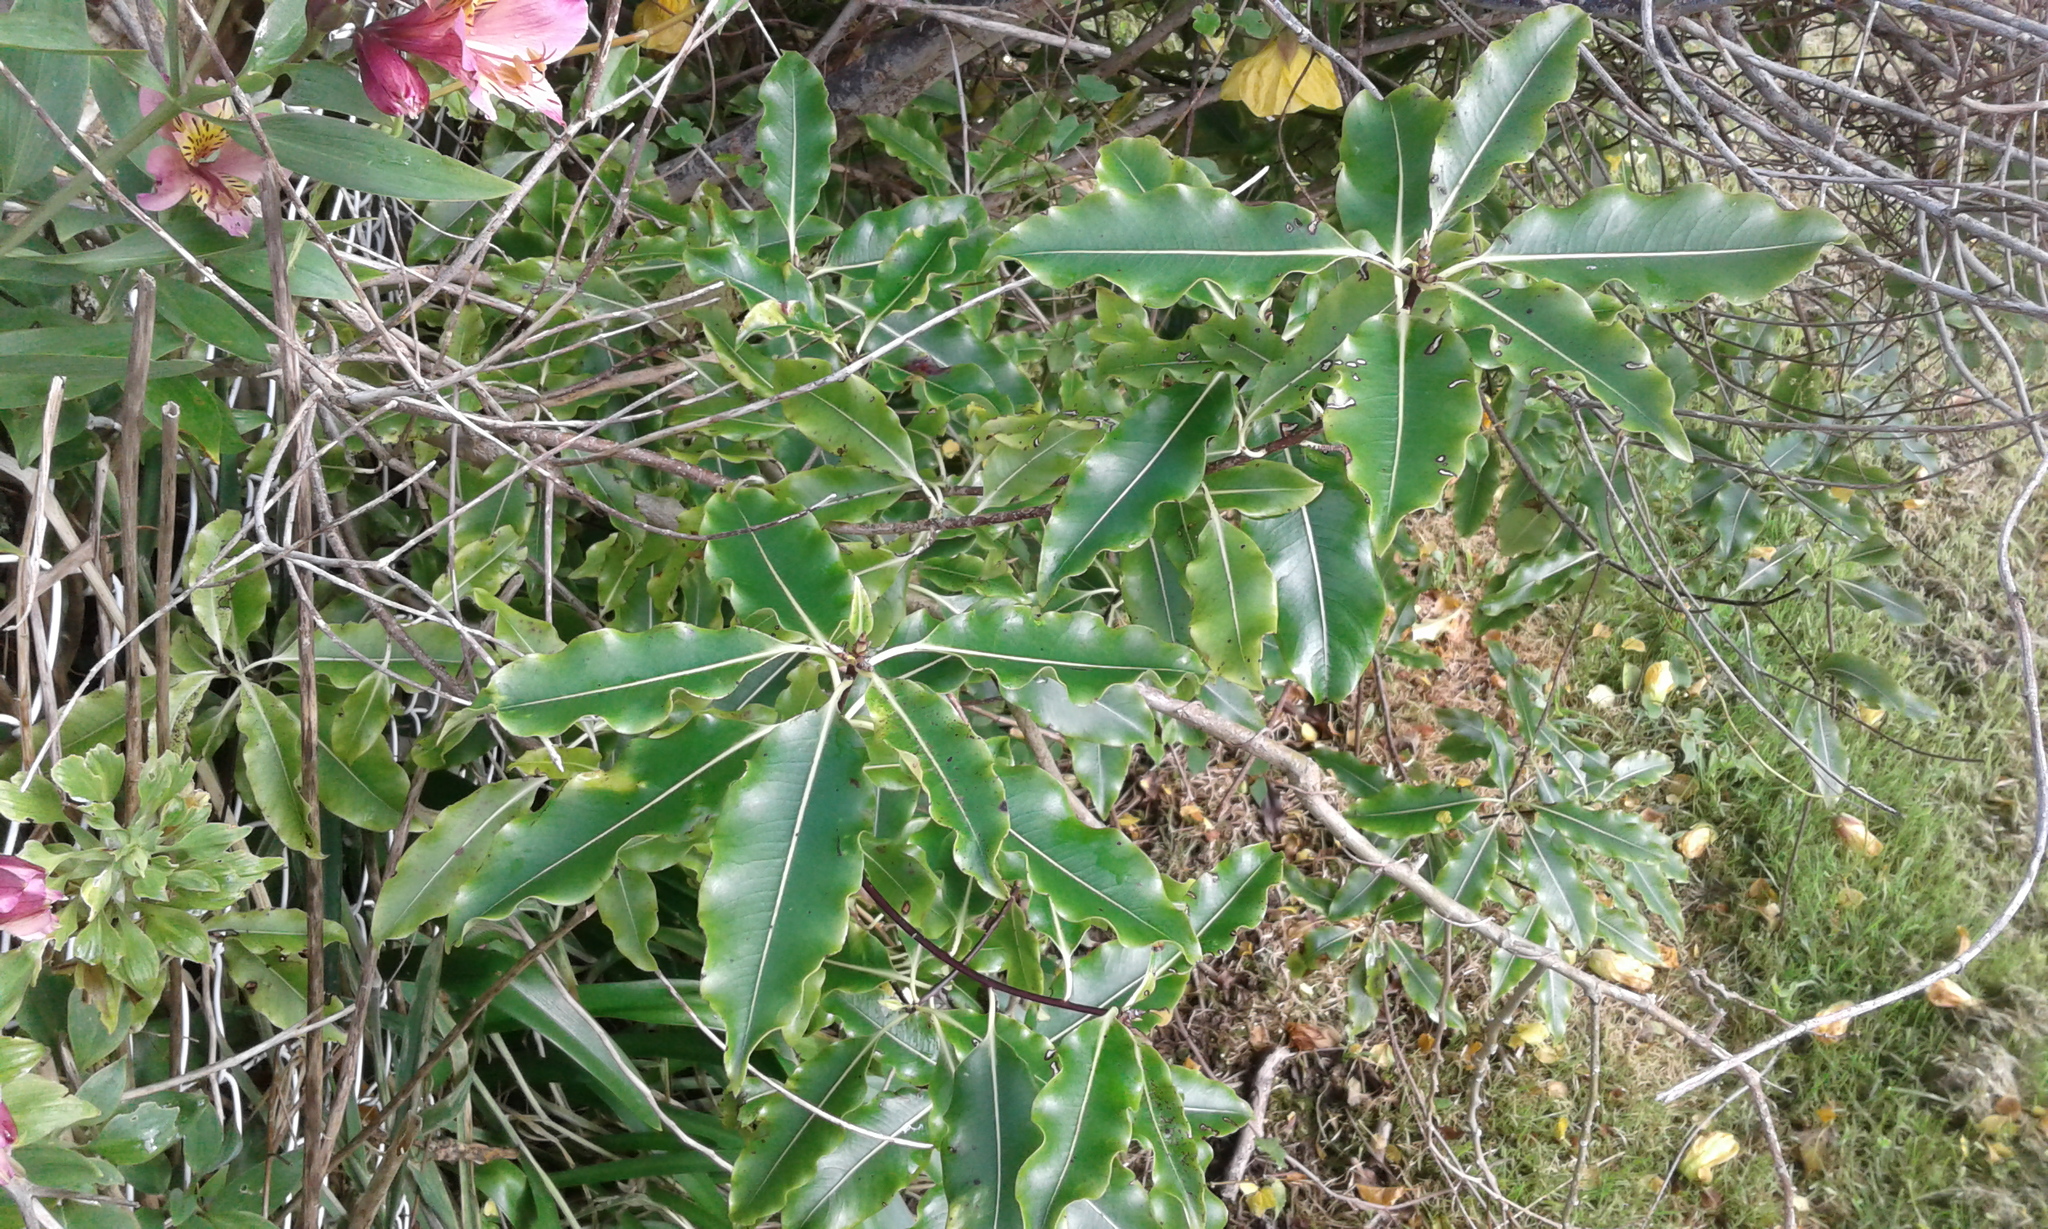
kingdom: Plantae
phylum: Tracheophyta
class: Magnoliopsida
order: Apiales
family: Pittosporaceae
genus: Pittosporum
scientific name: Pittosporum eugenioides
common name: Lemonwood
